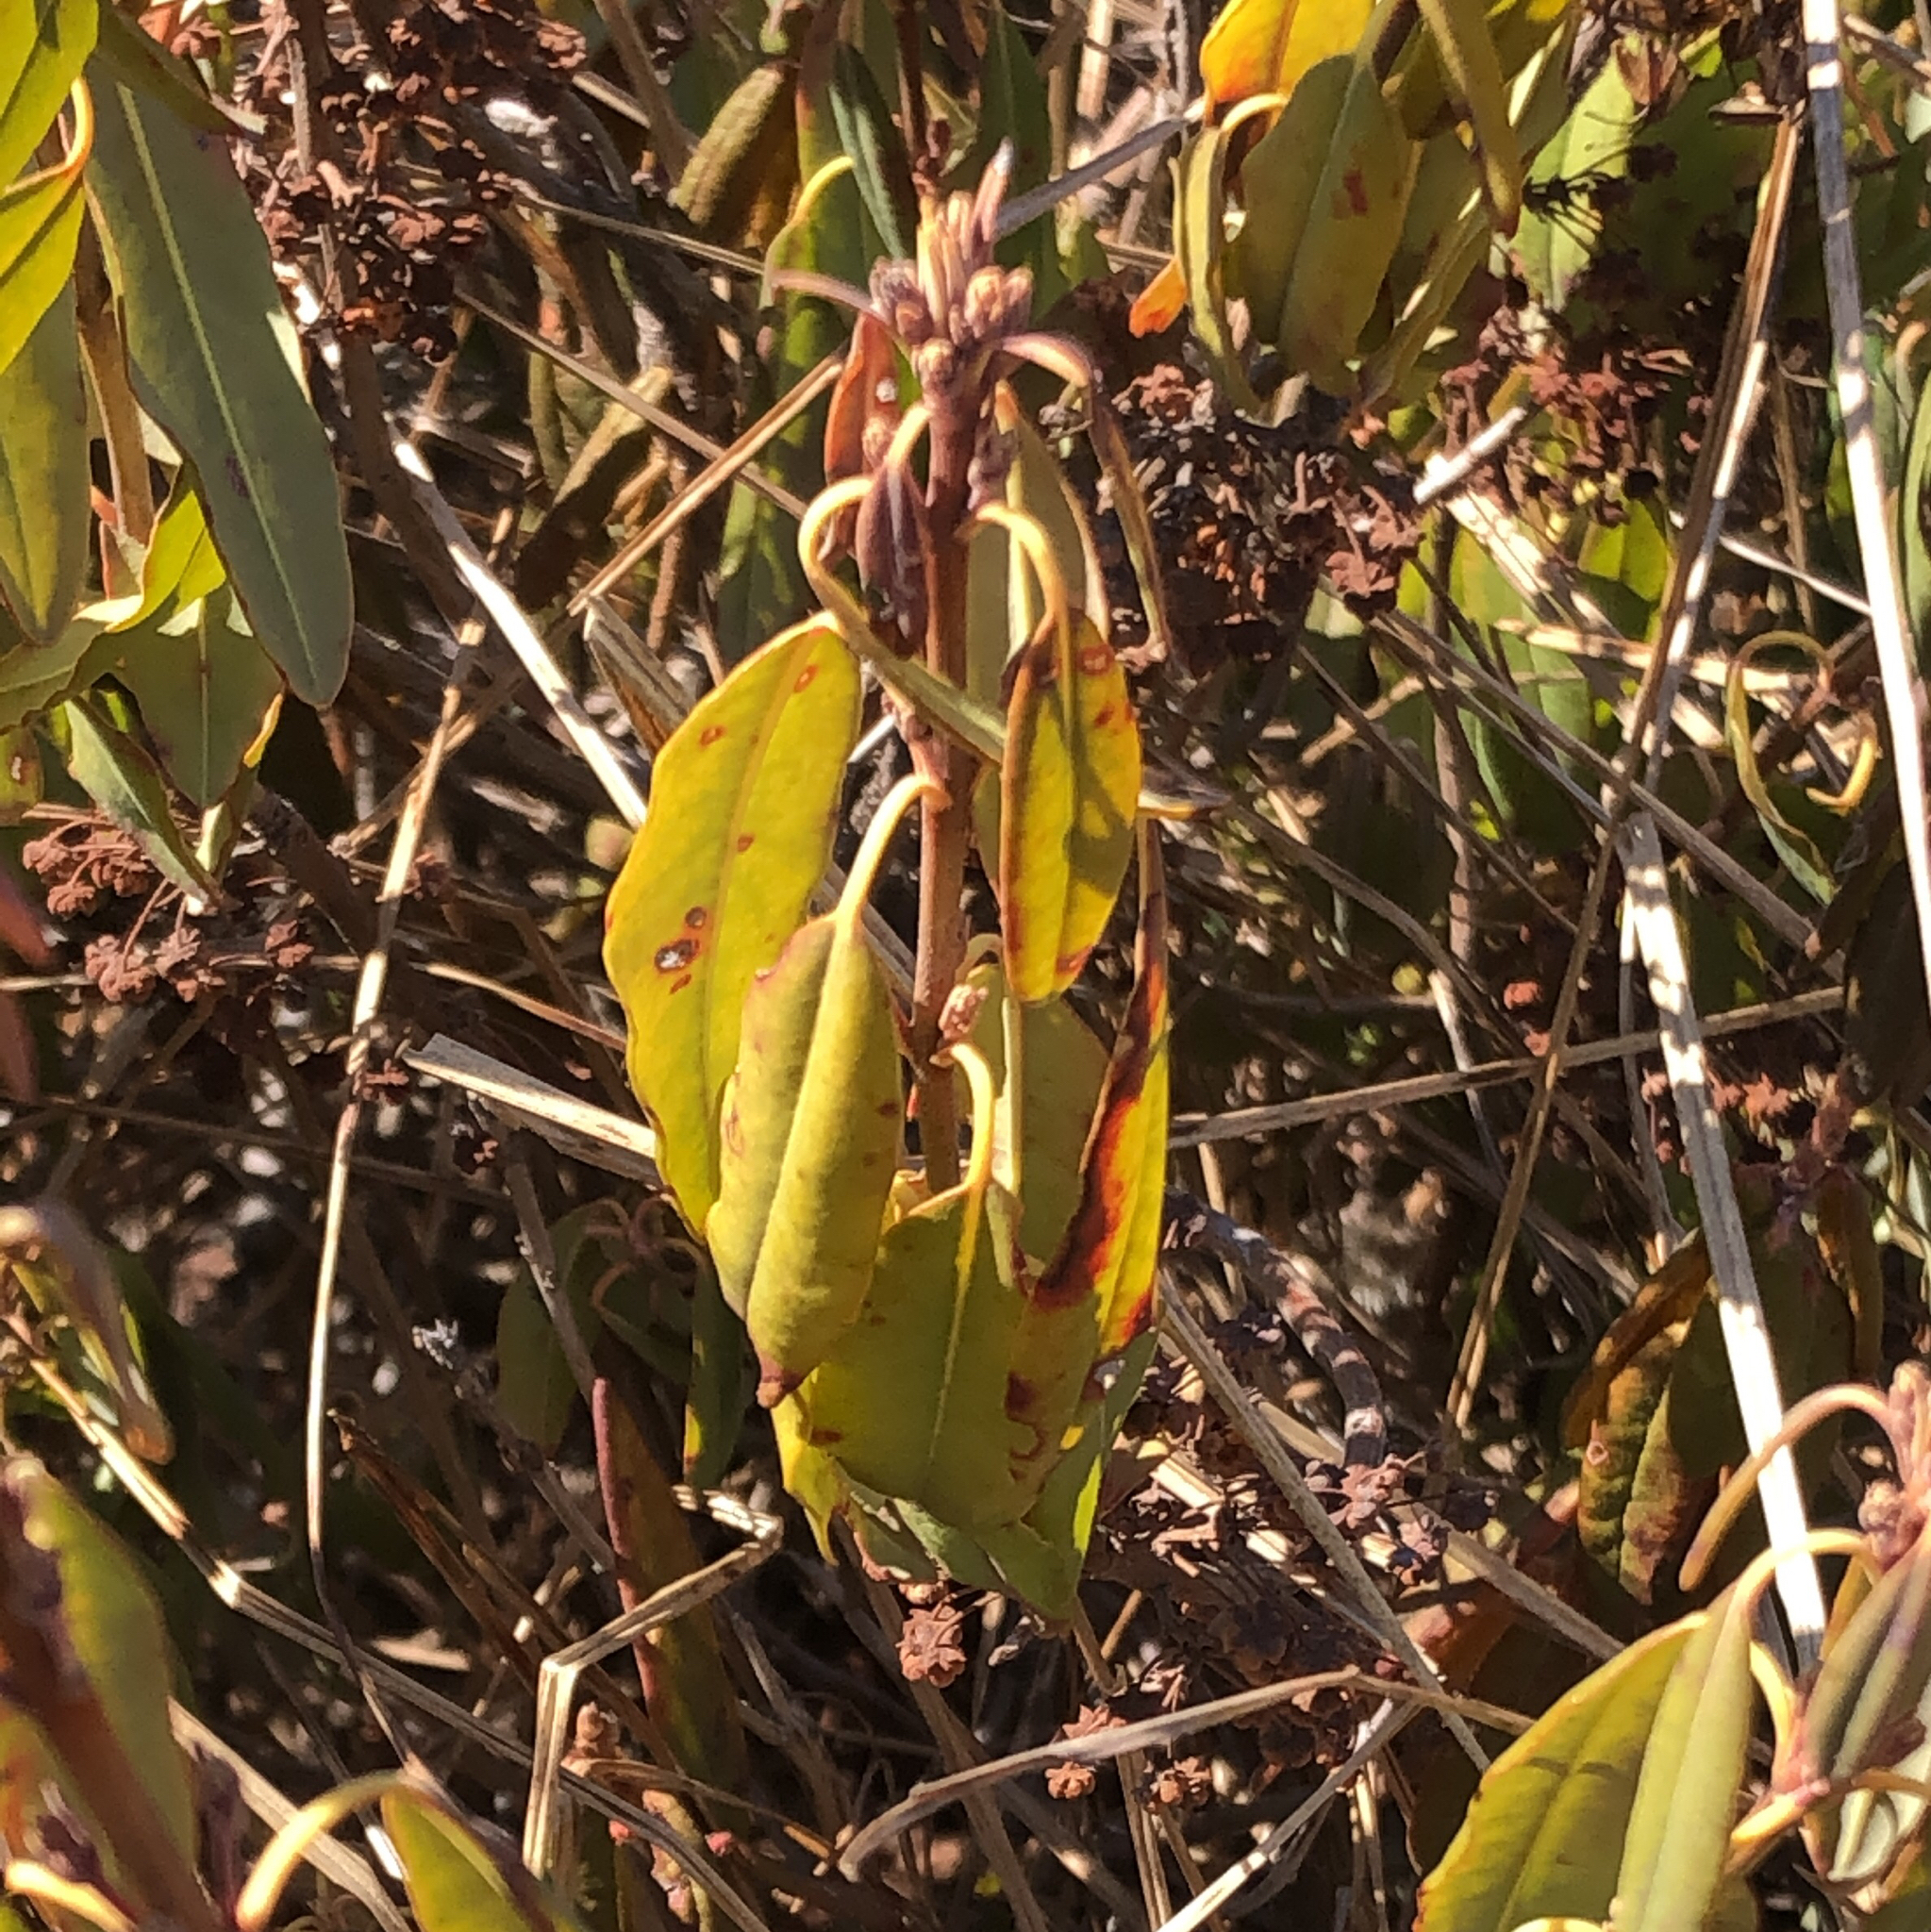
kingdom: Plantae
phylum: Tracheophyta
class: Magnoliopsida
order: Ericales
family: Ericaceae
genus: Kalmia
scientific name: Kalmia angustifolia
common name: Sheep-laurel
